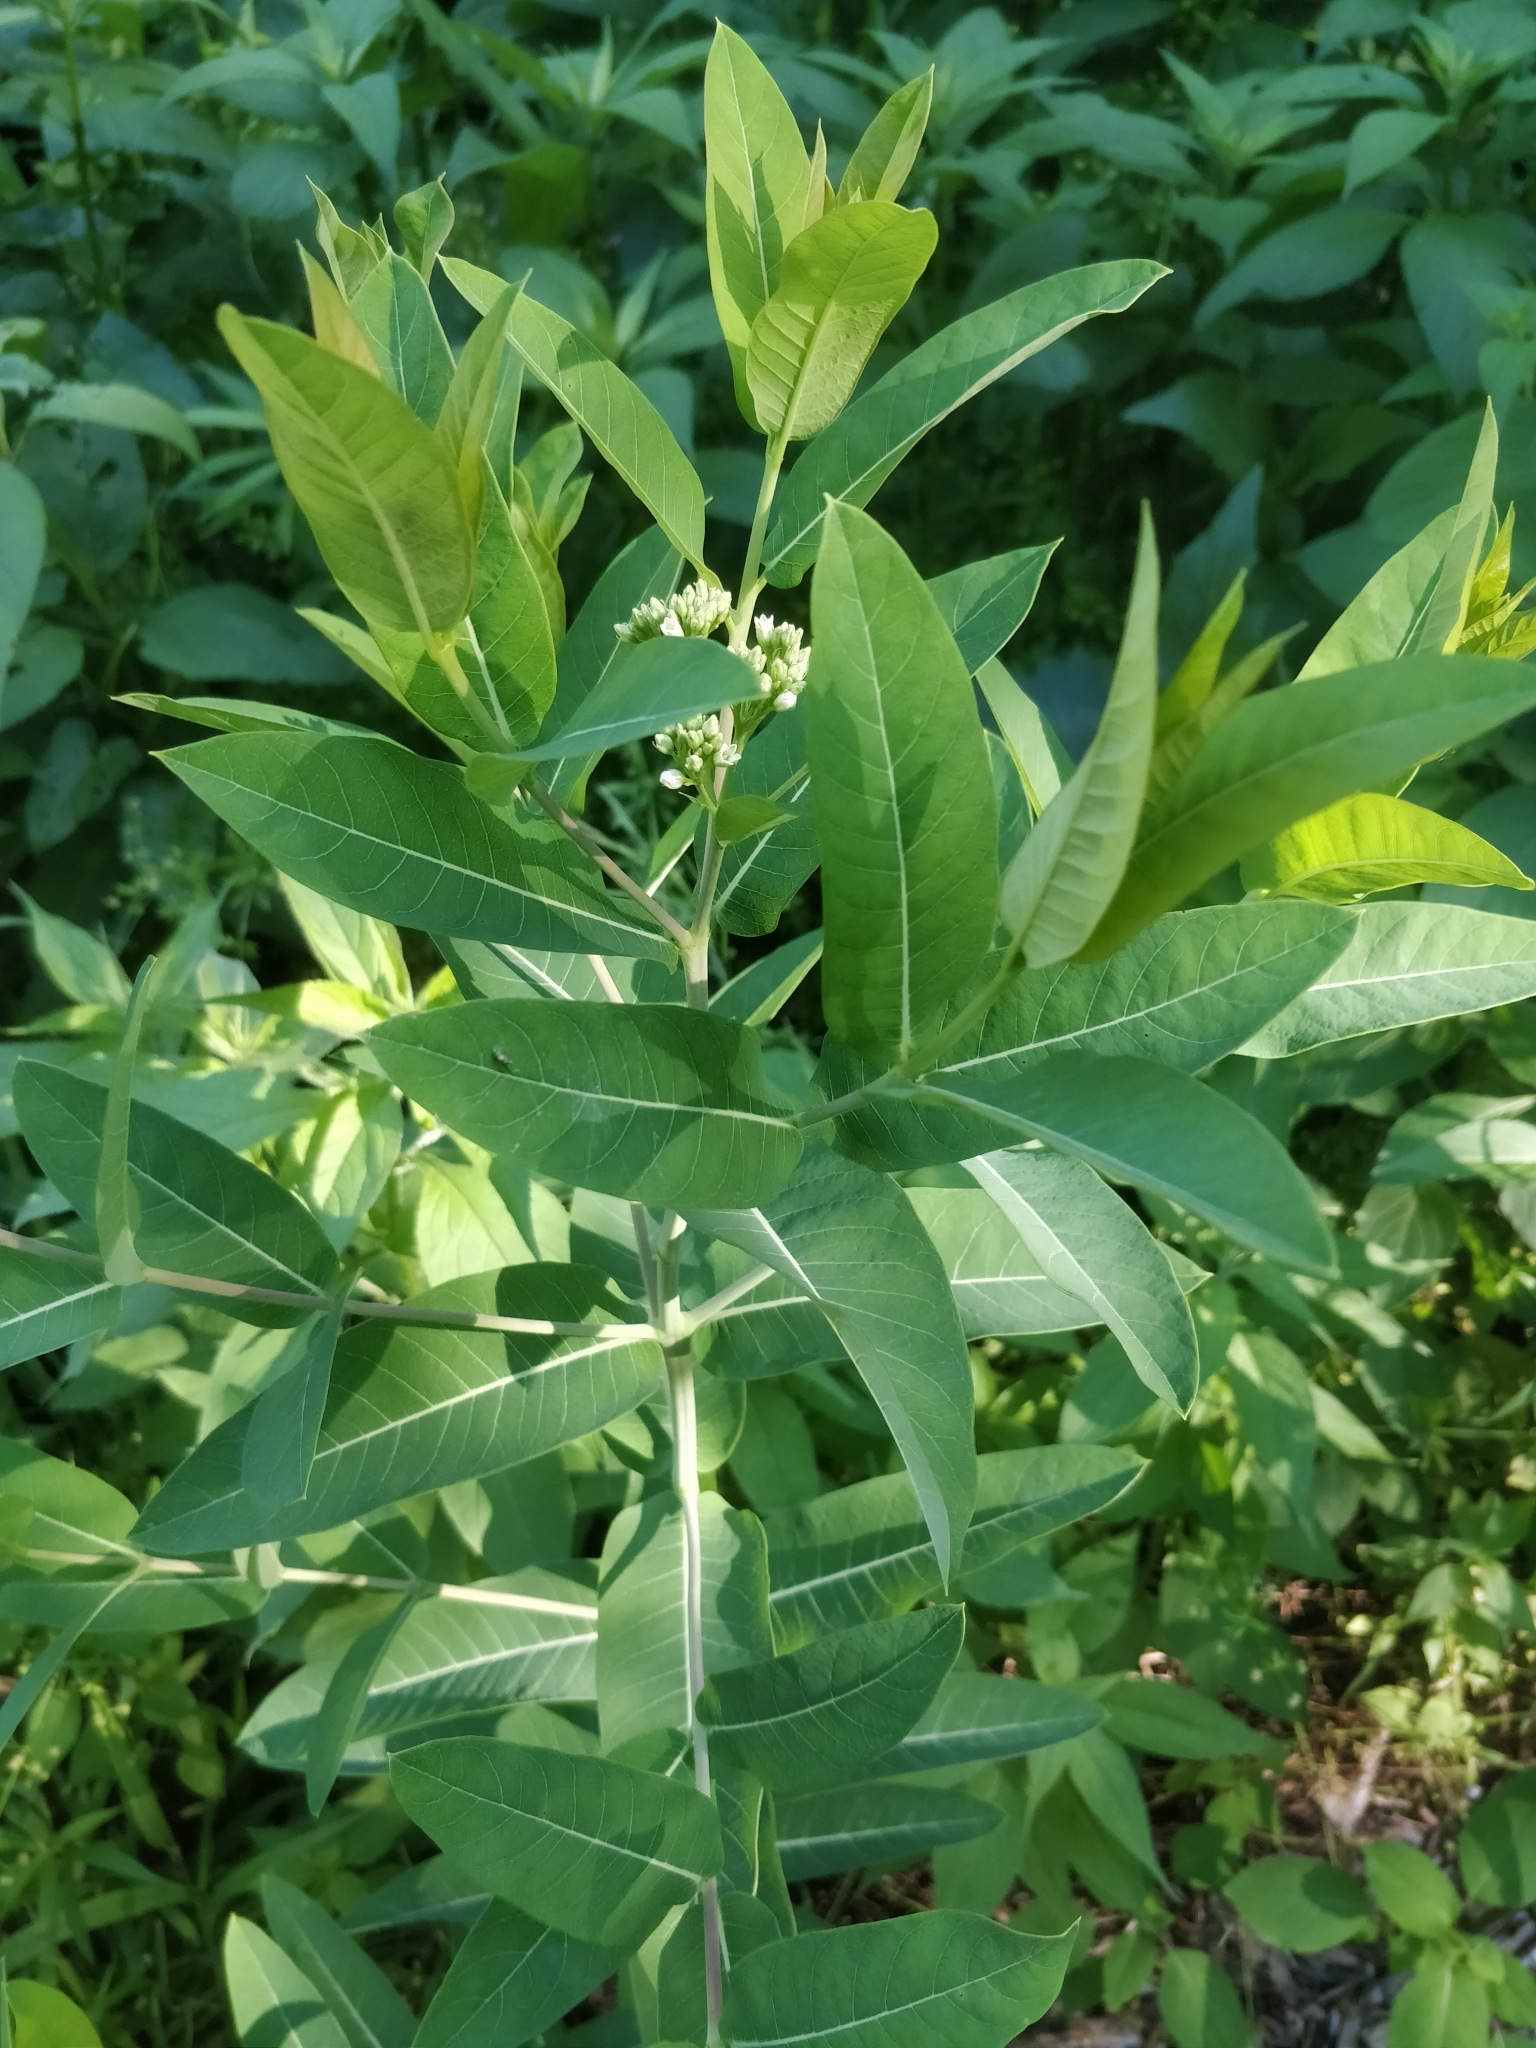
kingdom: Plantae
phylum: Tracheophyta
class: Magnoliopsida
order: Gentianales
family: Apocynaceae
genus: Apocynum
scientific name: Apocynum cannabinum
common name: Hemp dogbane
